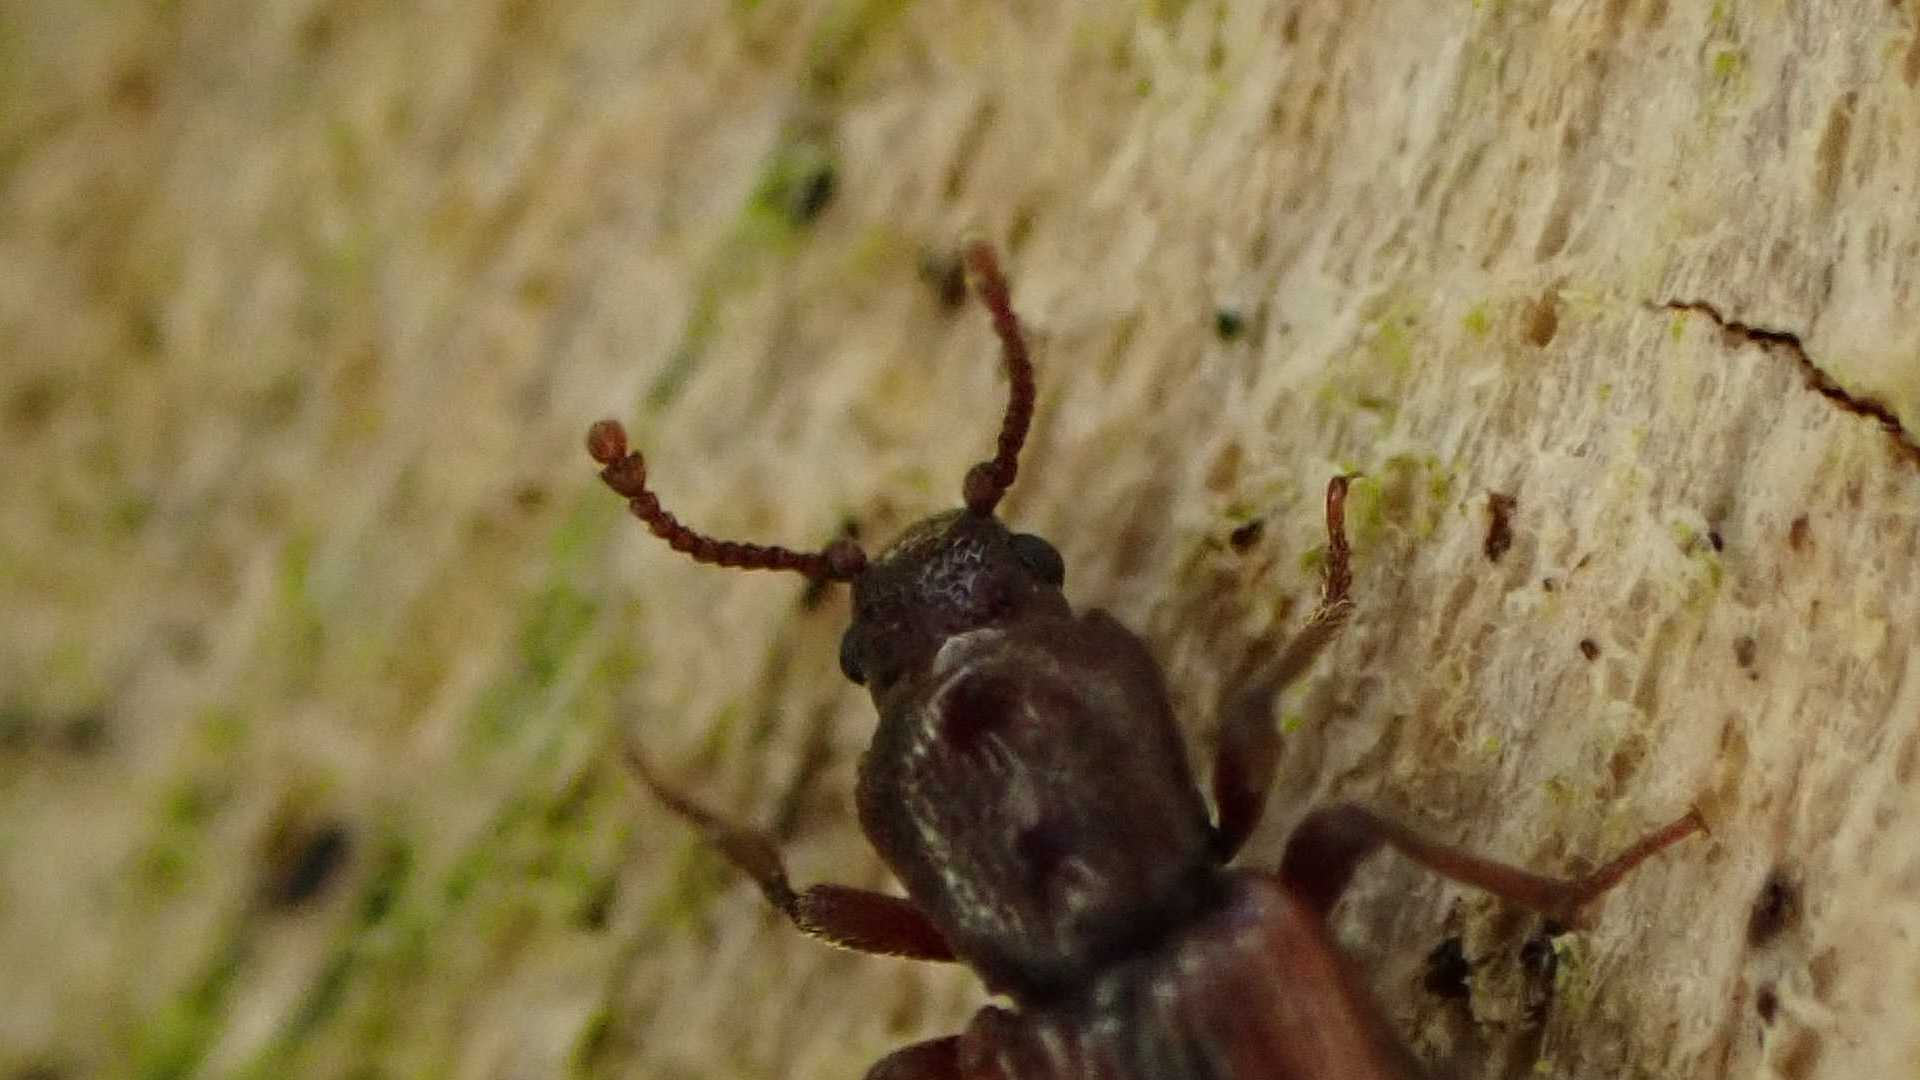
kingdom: Animalia
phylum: Arthropoda
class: Insecta
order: Coleoptera
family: Bothrideridae
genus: Bothrideres
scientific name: Bothrideres bipunctatus
